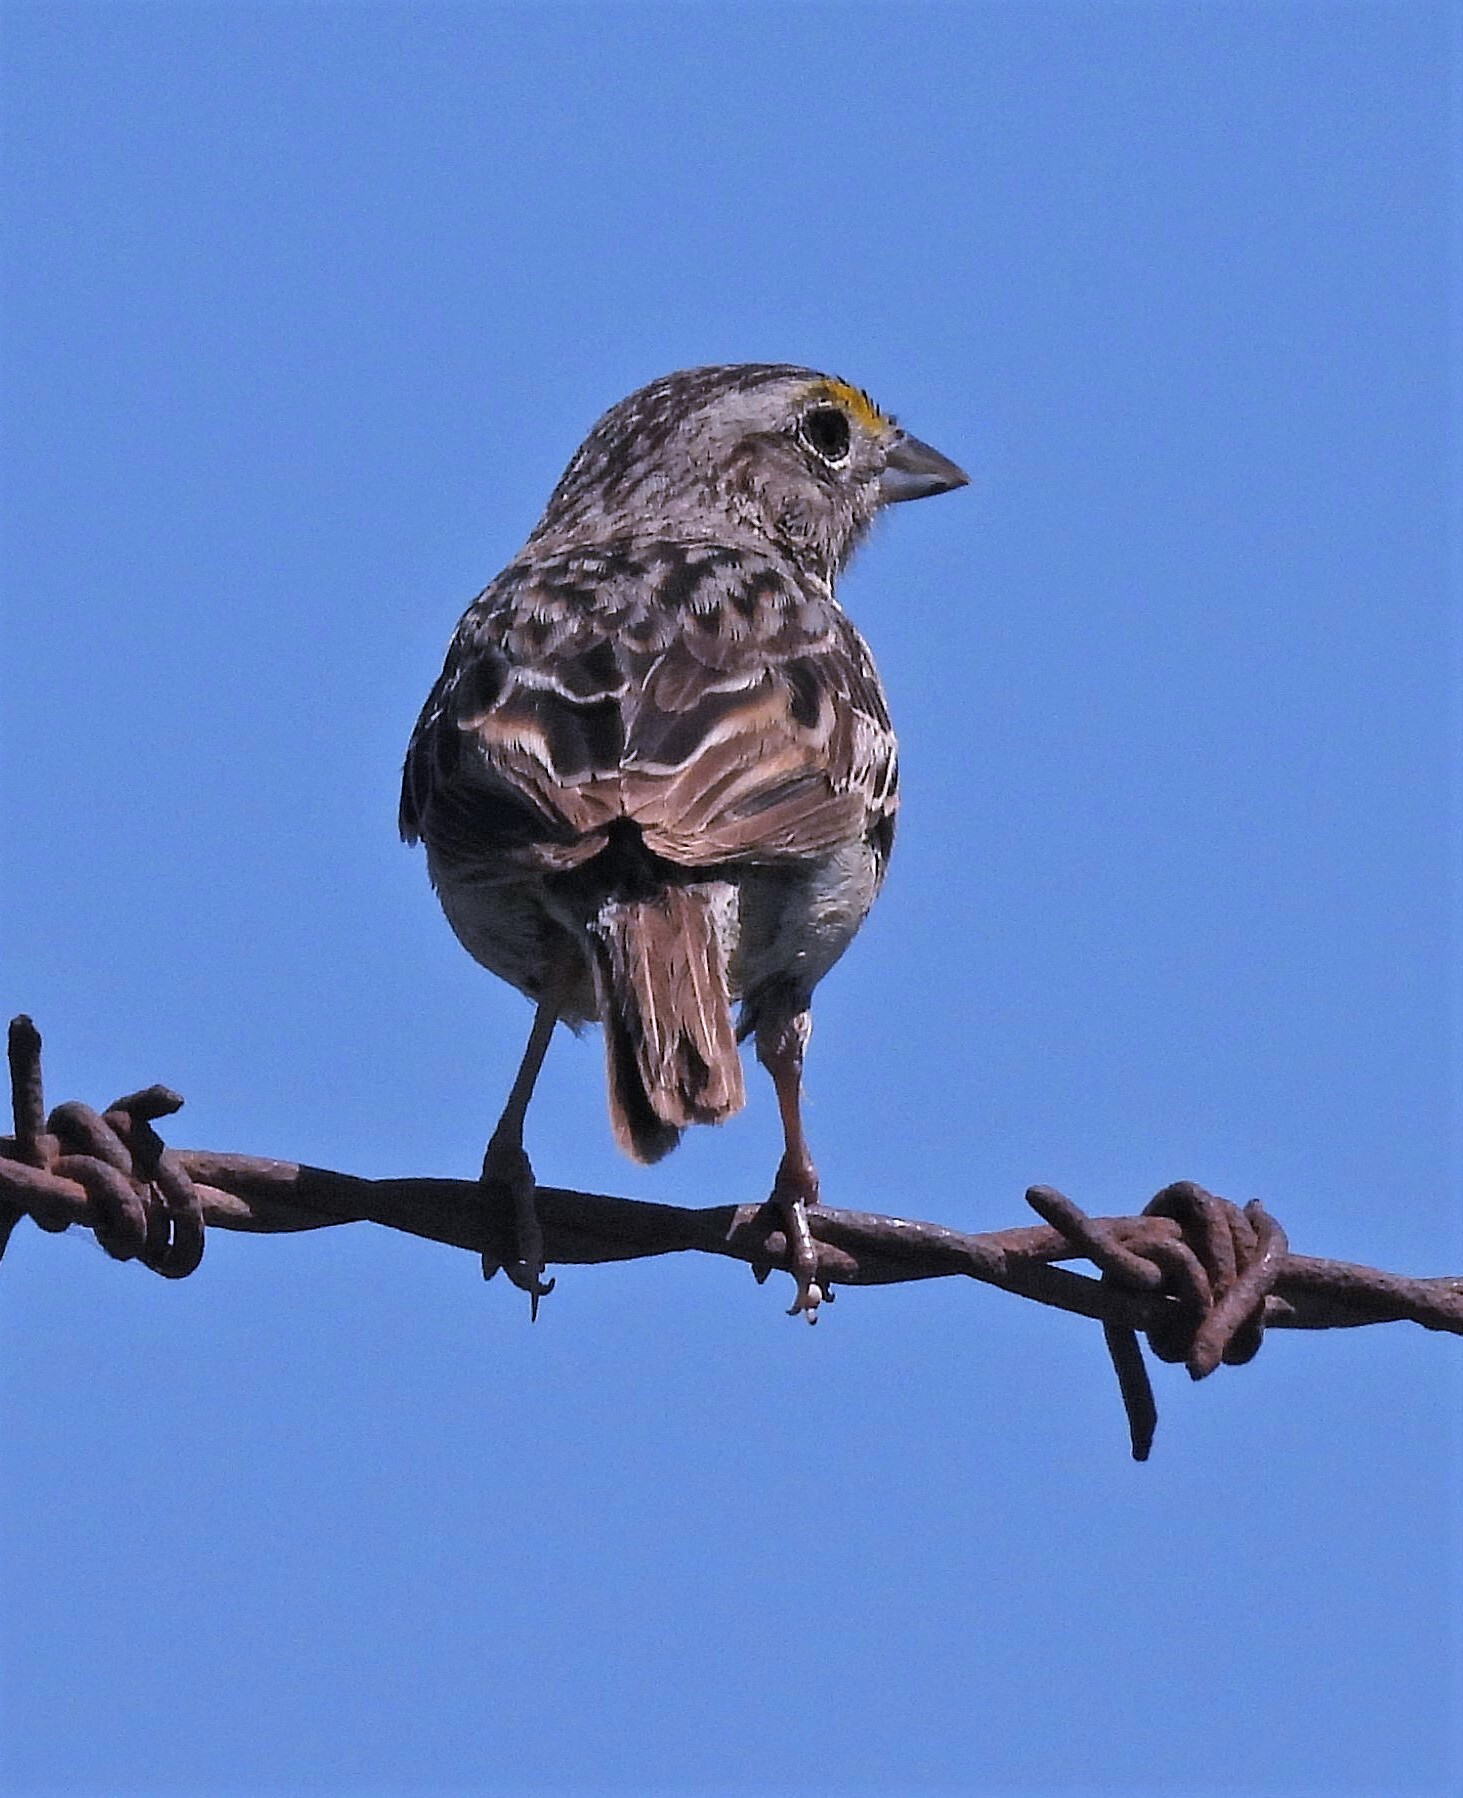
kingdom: Animalia
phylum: Chordata
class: Aves
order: Passeriformes
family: Passerellidae
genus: Ammodramus
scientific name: Ammodramus humeralis
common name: Grassland sparrow
